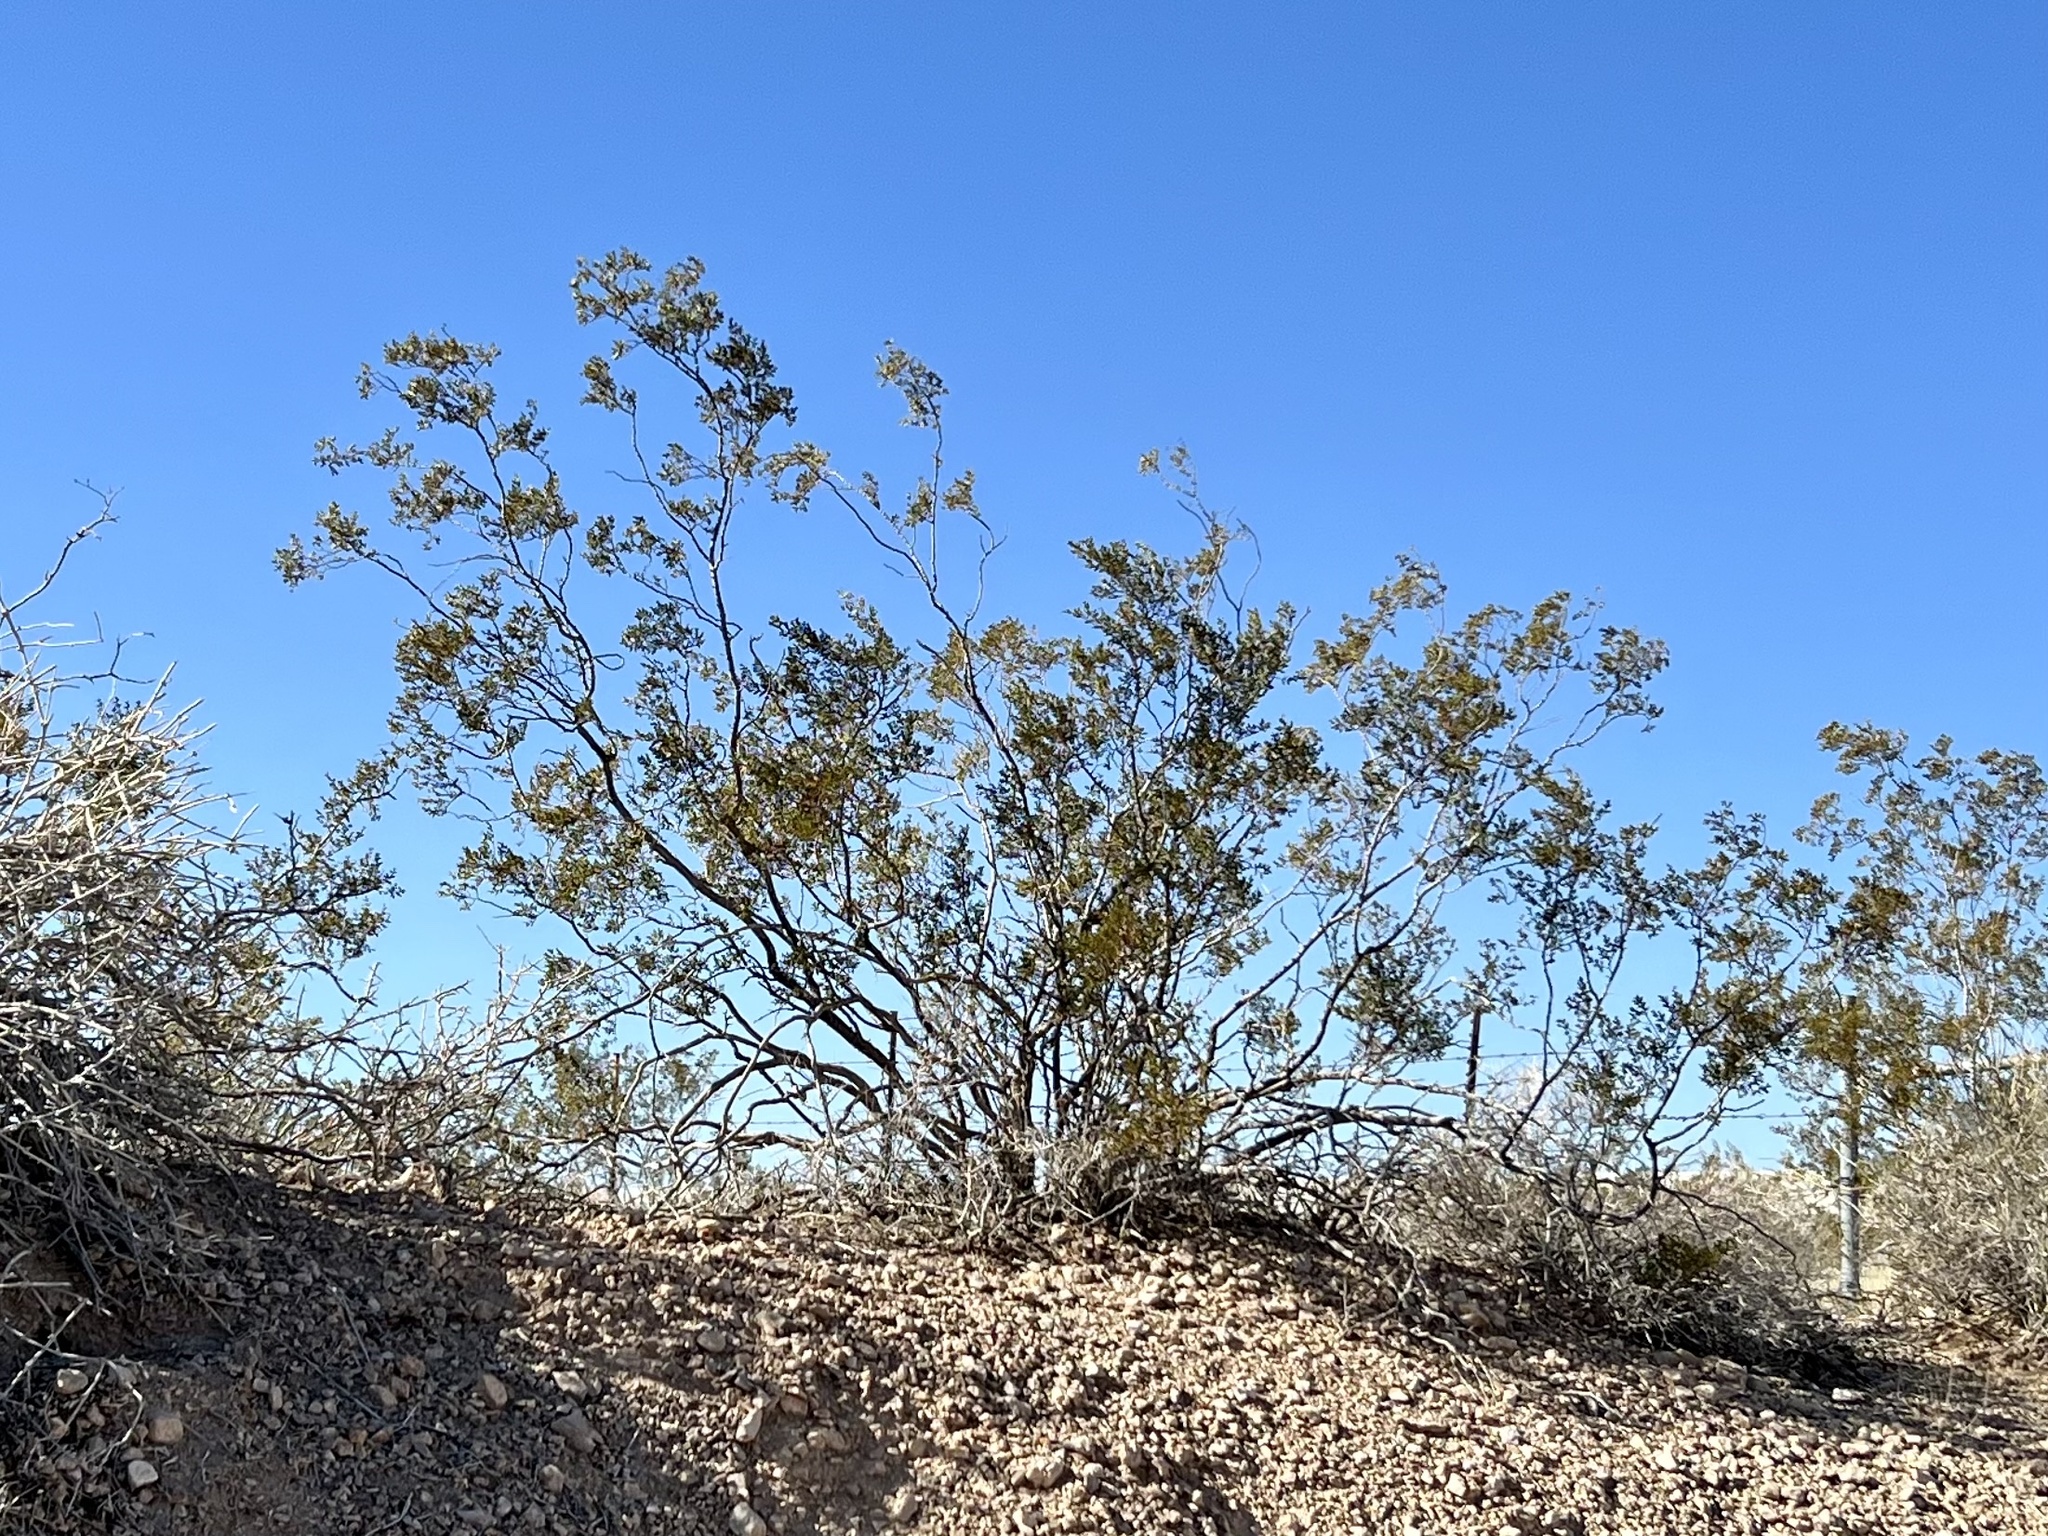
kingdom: Plantae
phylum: Tracheophyta
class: Magnoliopsida
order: Zygophyllales
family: Zygophyllaceae
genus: Larrea
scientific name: Larrea tridentata
